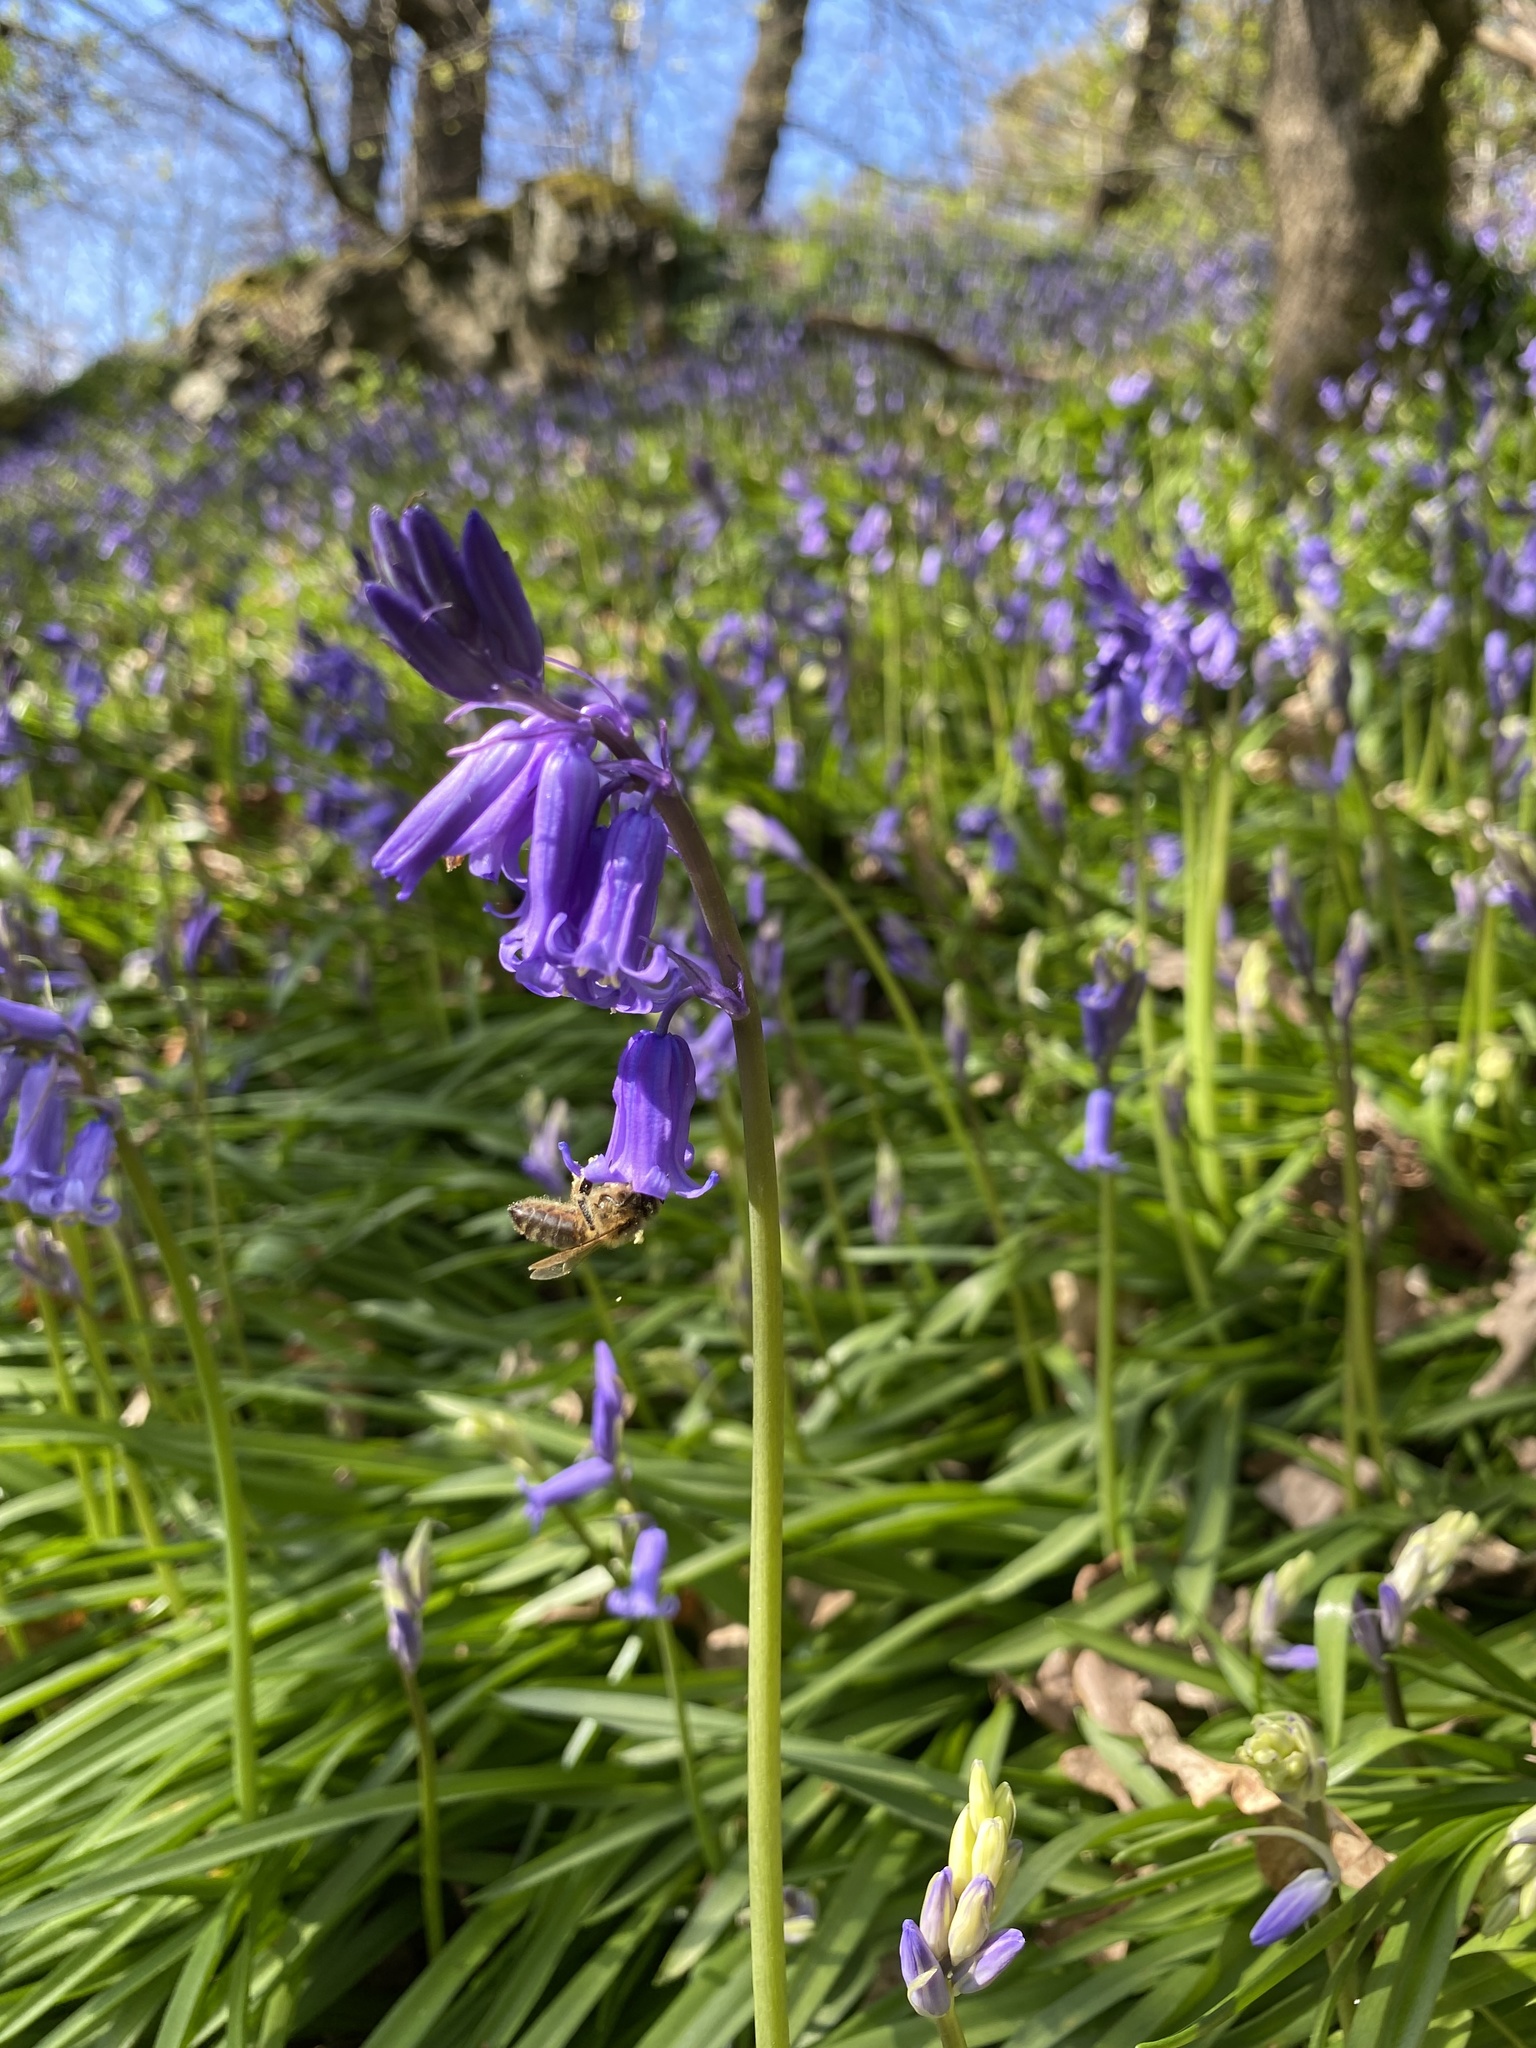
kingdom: Plantae
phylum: Tracheophyta
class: Liliopsida
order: Asparagales
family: Asparagaceae
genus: Hyacinthoides
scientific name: Hyacinthoides non-scripta
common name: Bluebell
